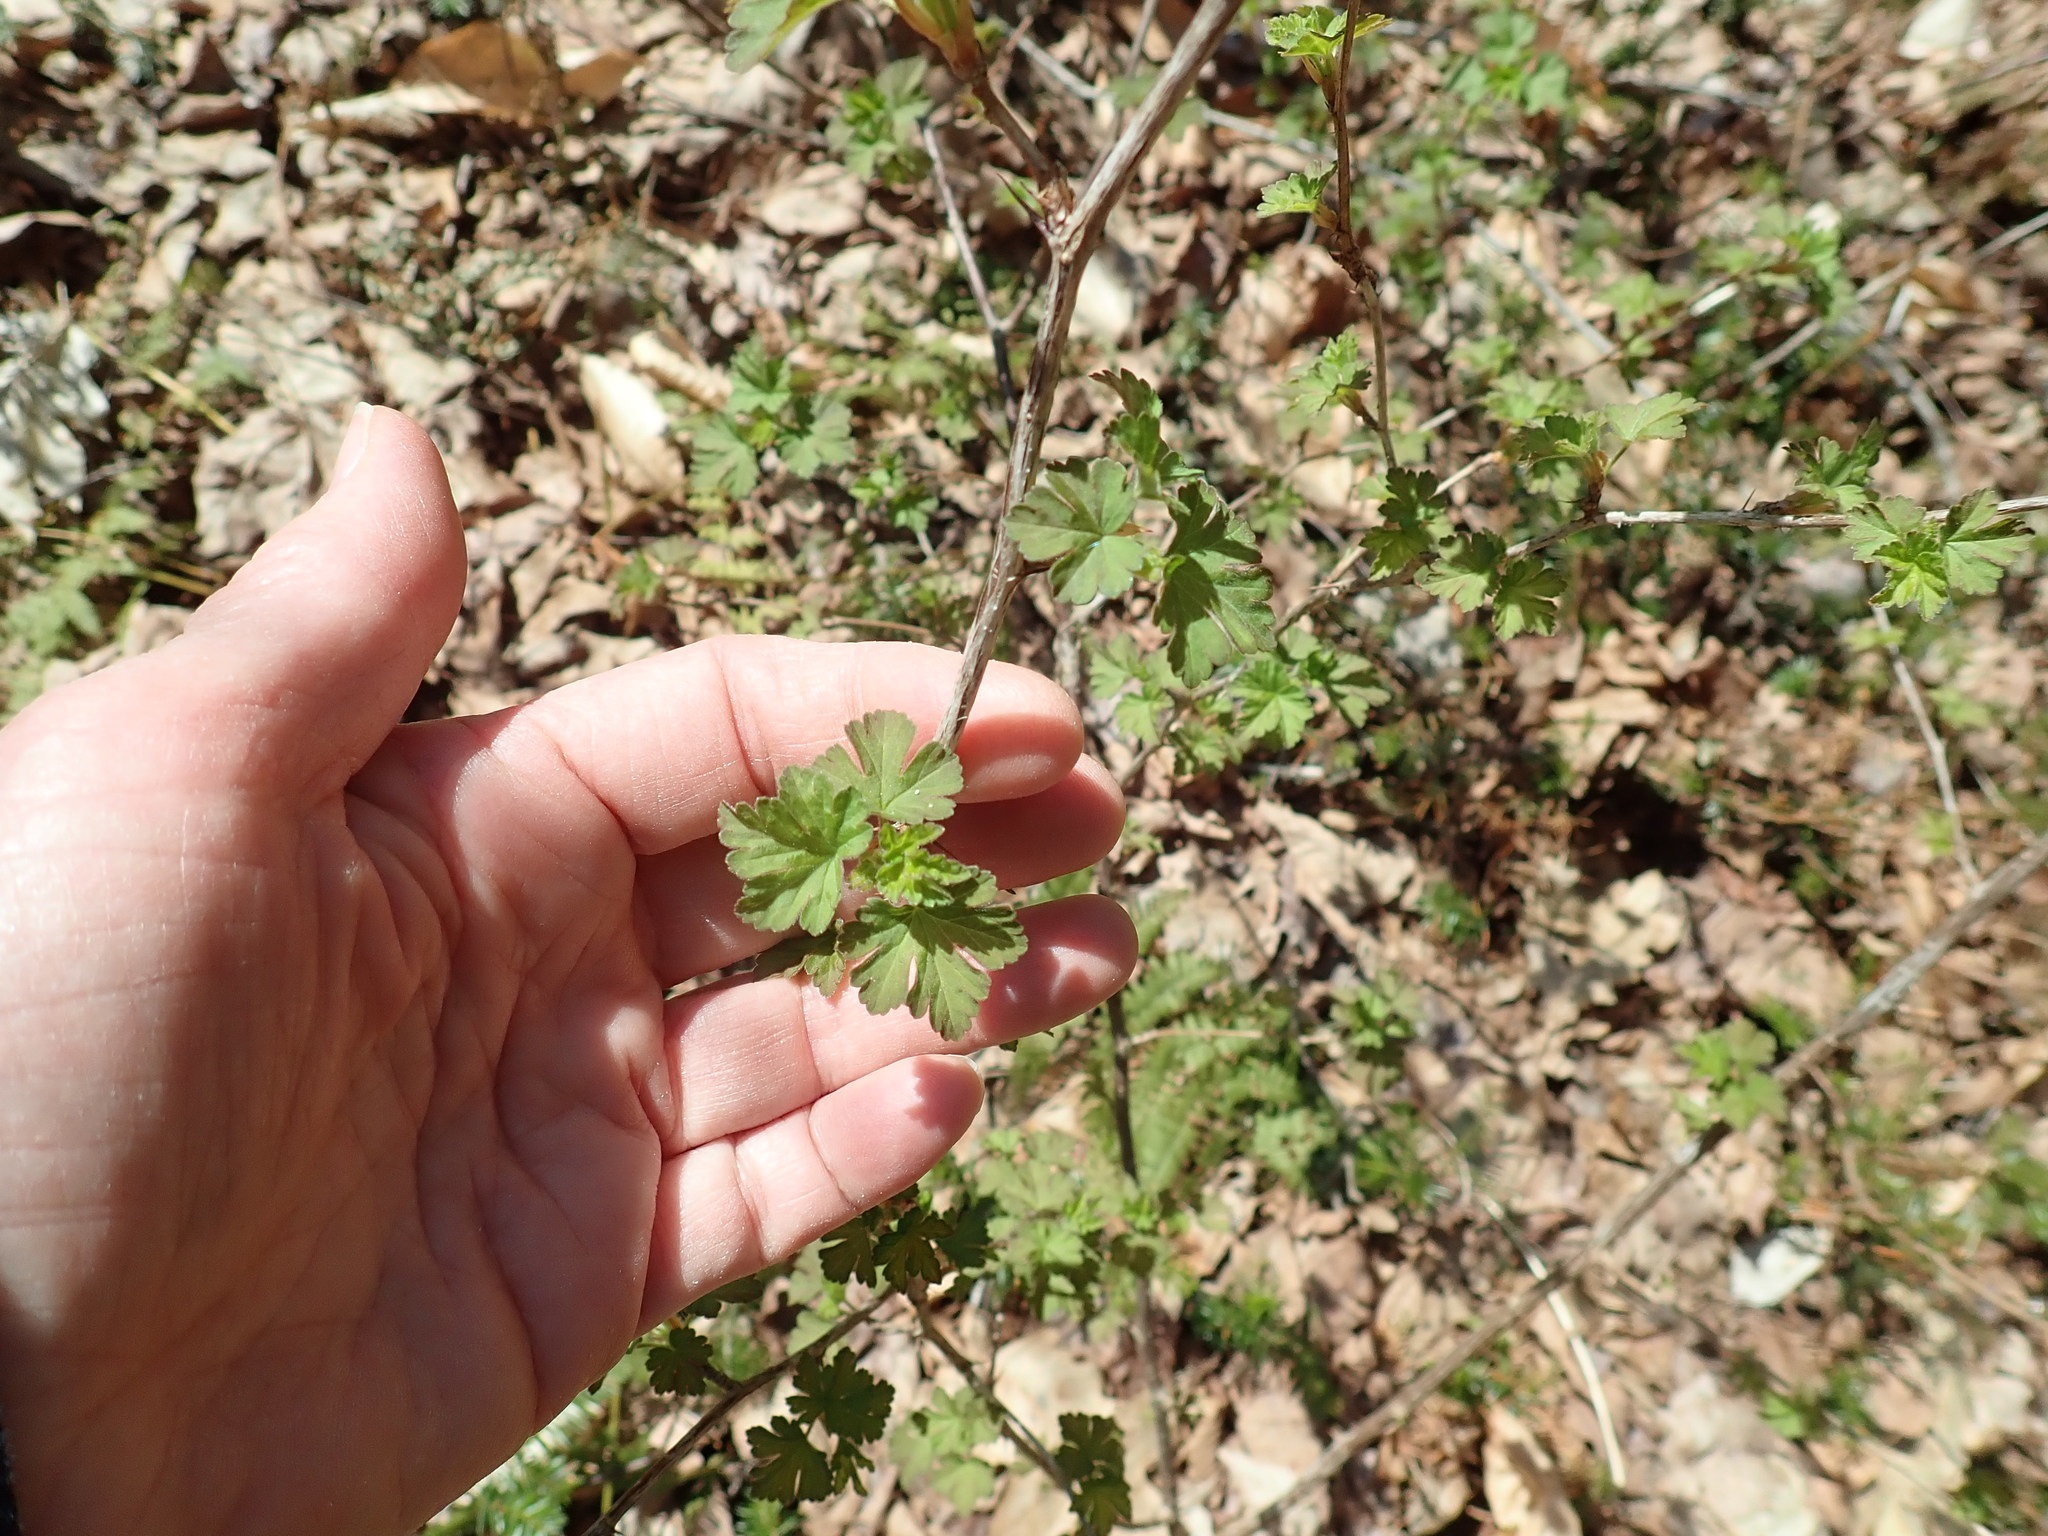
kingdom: Plantae
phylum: Tracheophyta
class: Magnoliopsida
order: Saxifragales
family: Grossulariaceae
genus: Ribes
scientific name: Ribes
